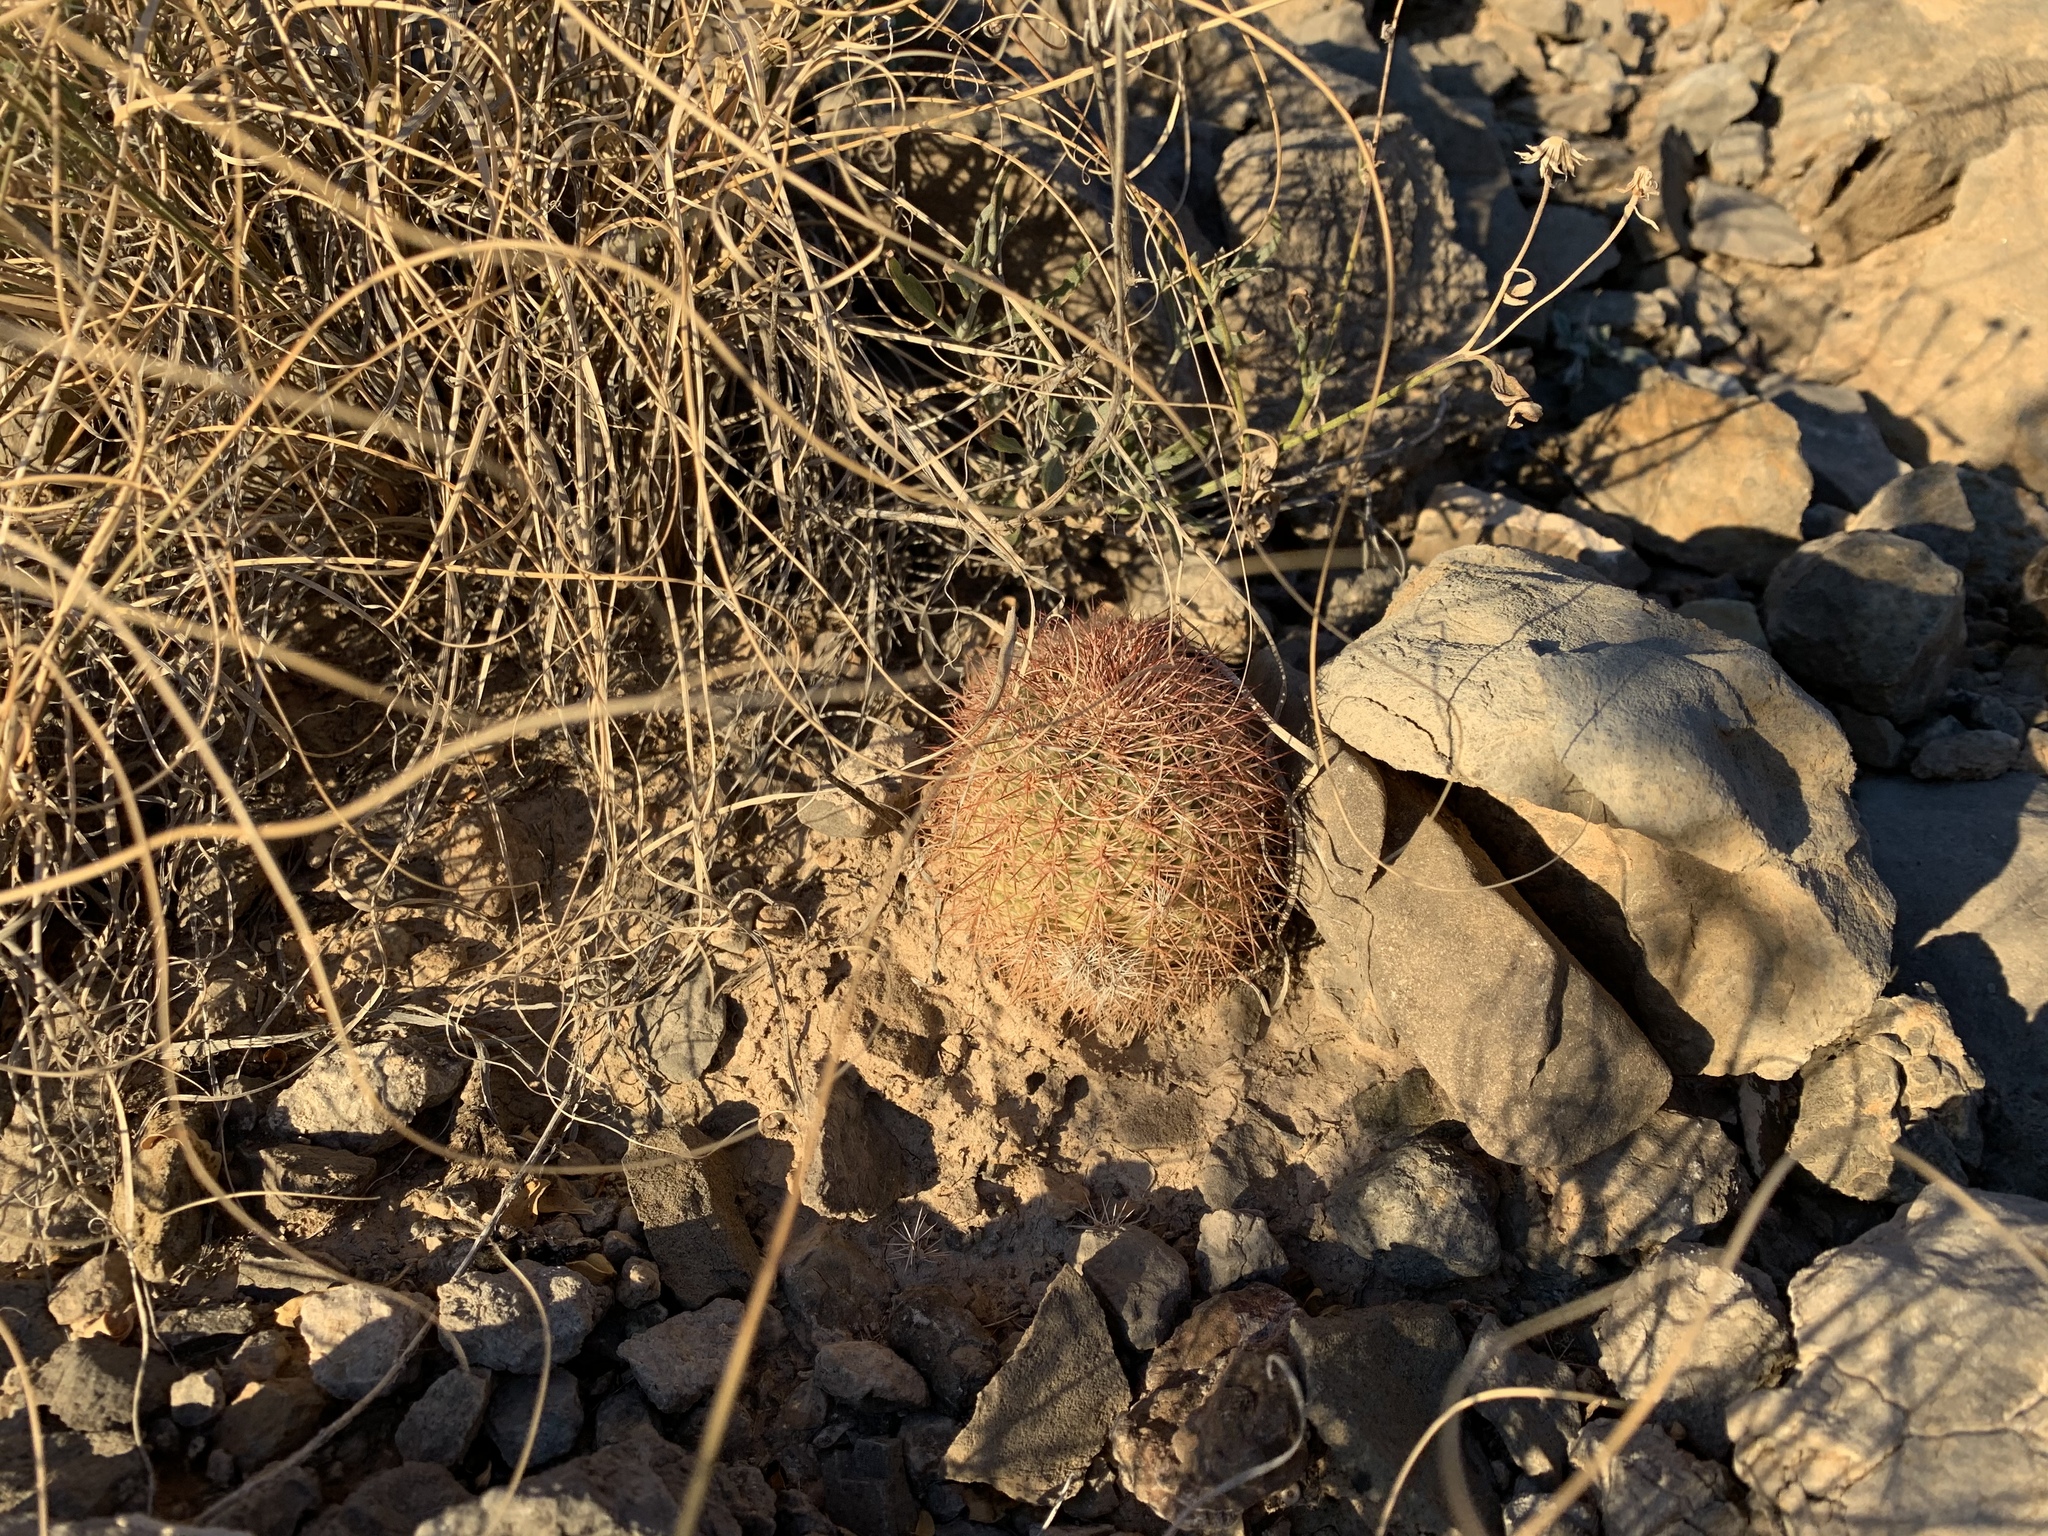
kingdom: Plantae
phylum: Tracheophyta
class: Magnoliopsida
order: Caryophyllales
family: Cactaceae
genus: Echinocereus
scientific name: Echinocereus dasyacanthus
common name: Spiny hedgehog cactus
